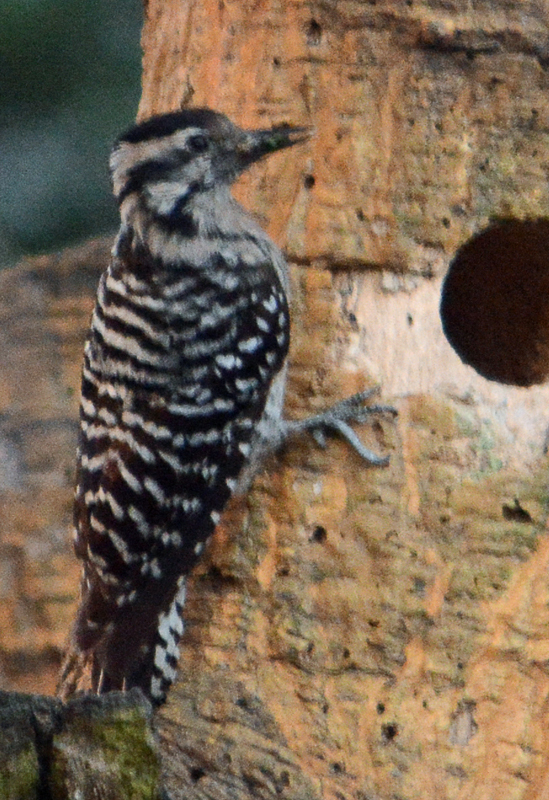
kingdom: Animalia
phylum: Chordata
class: Aves
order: Piciformes
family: Picidae
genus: Dryobates
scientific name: Dryobates scalaris
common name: Ladder-backed woodpecker
